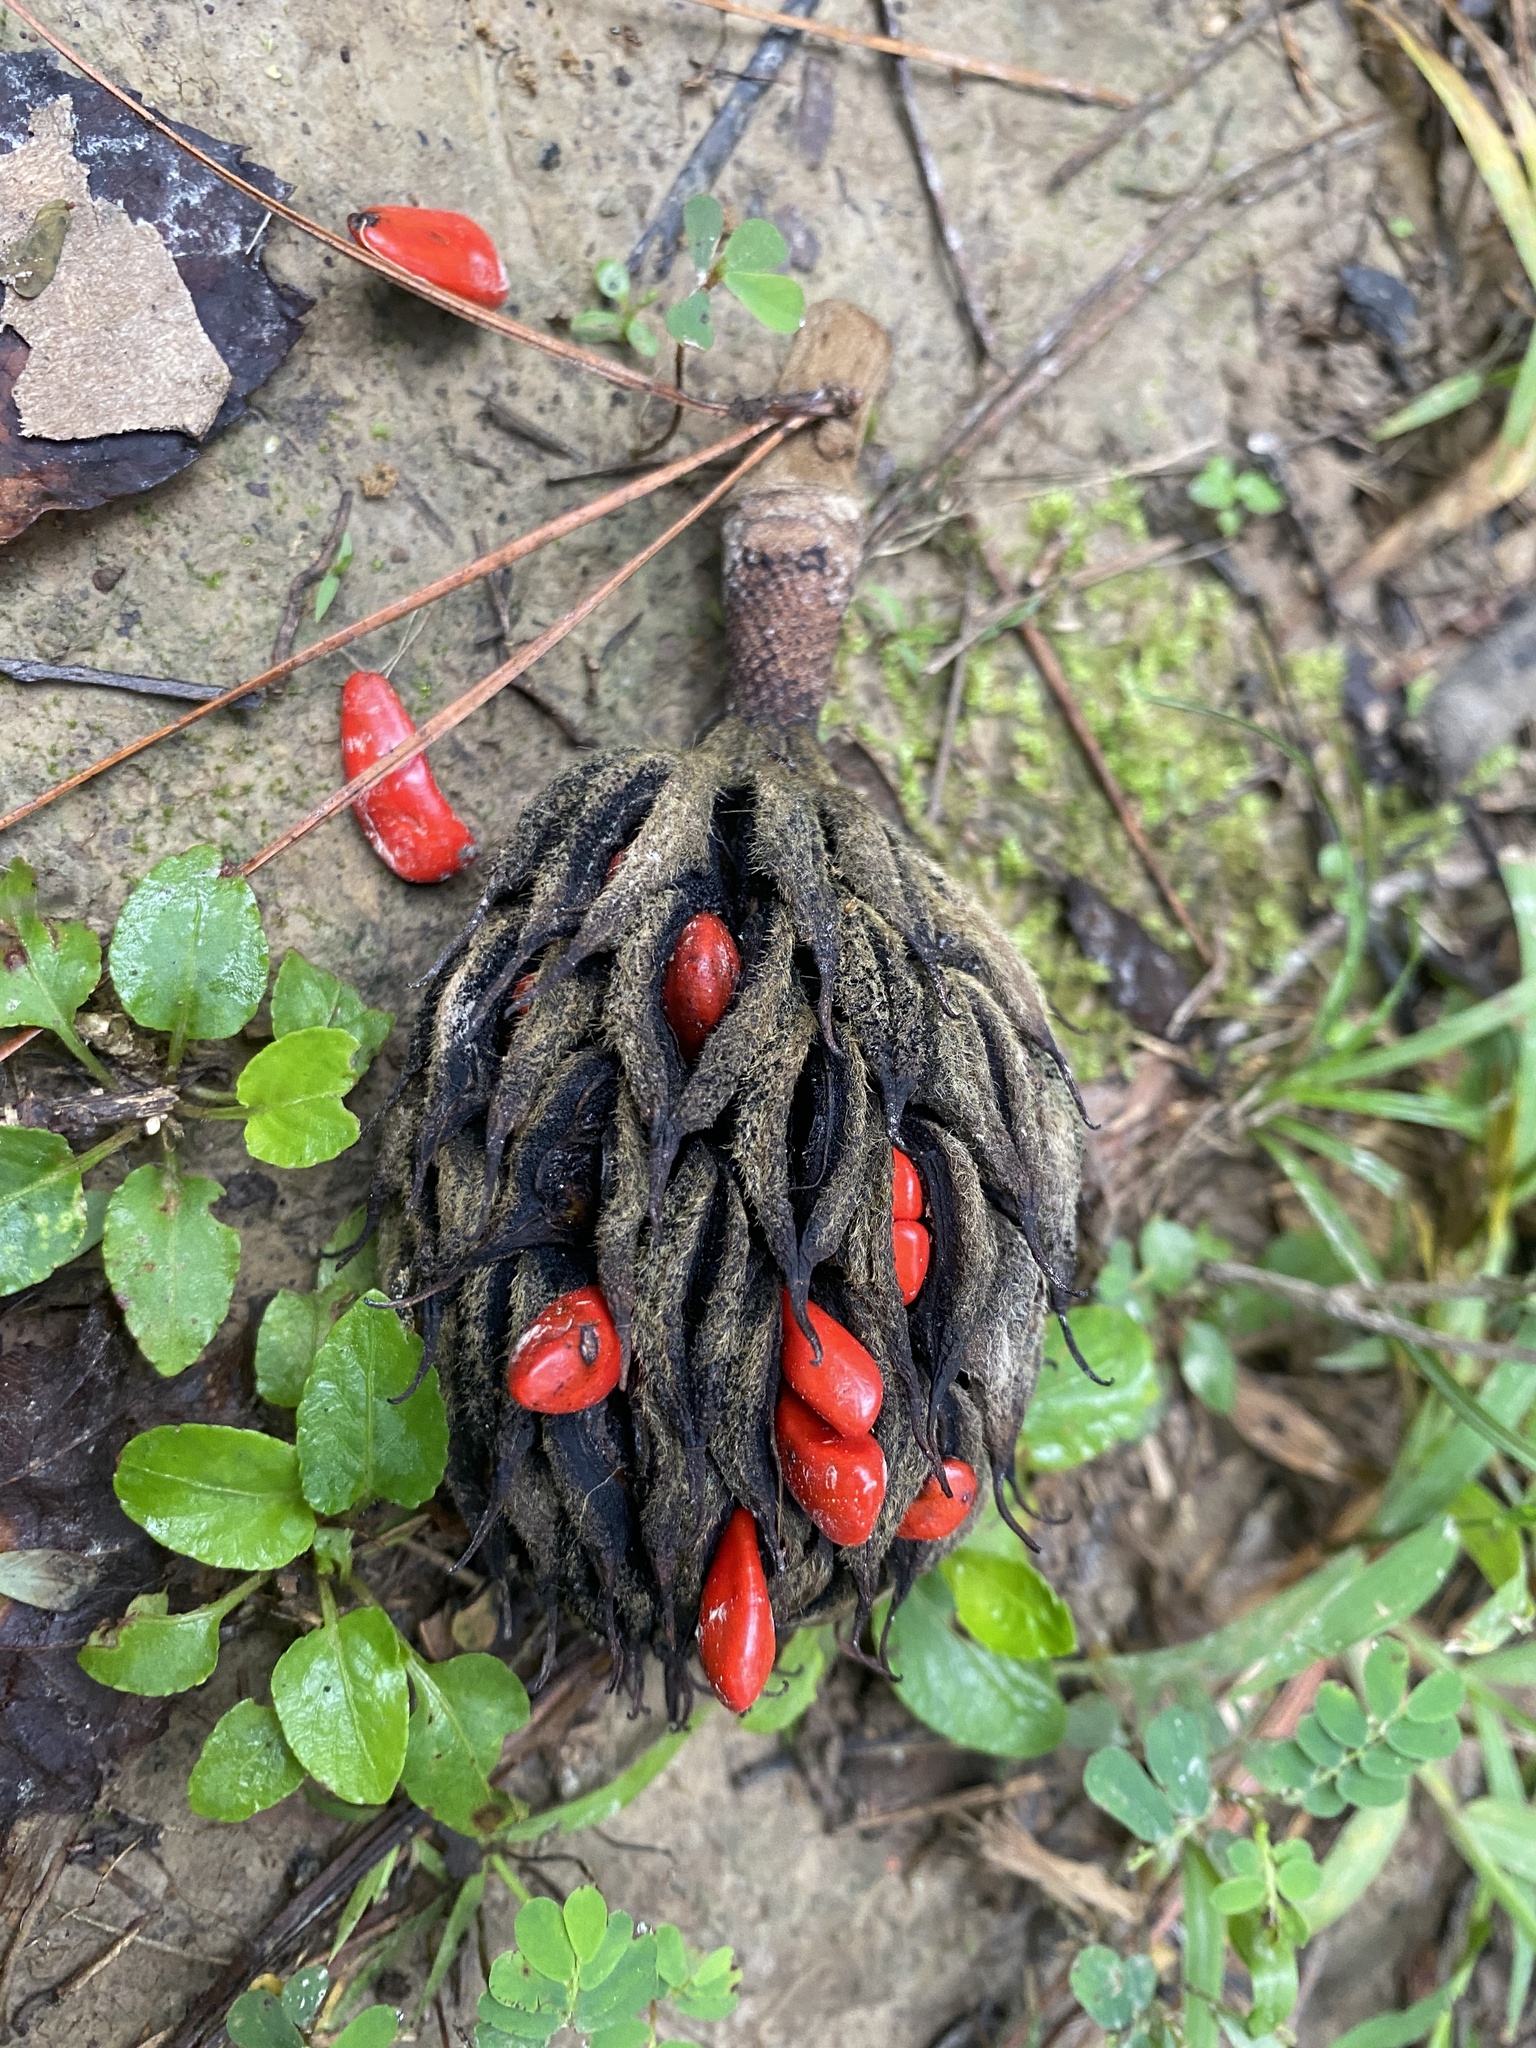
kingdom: Plantae
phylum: Tracheophyta
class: Magnoliopsida
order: Magnoliales
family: Magnoliaceae
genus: Magnolia
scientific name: Magnolia grandiflora
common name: Southern magnolia
